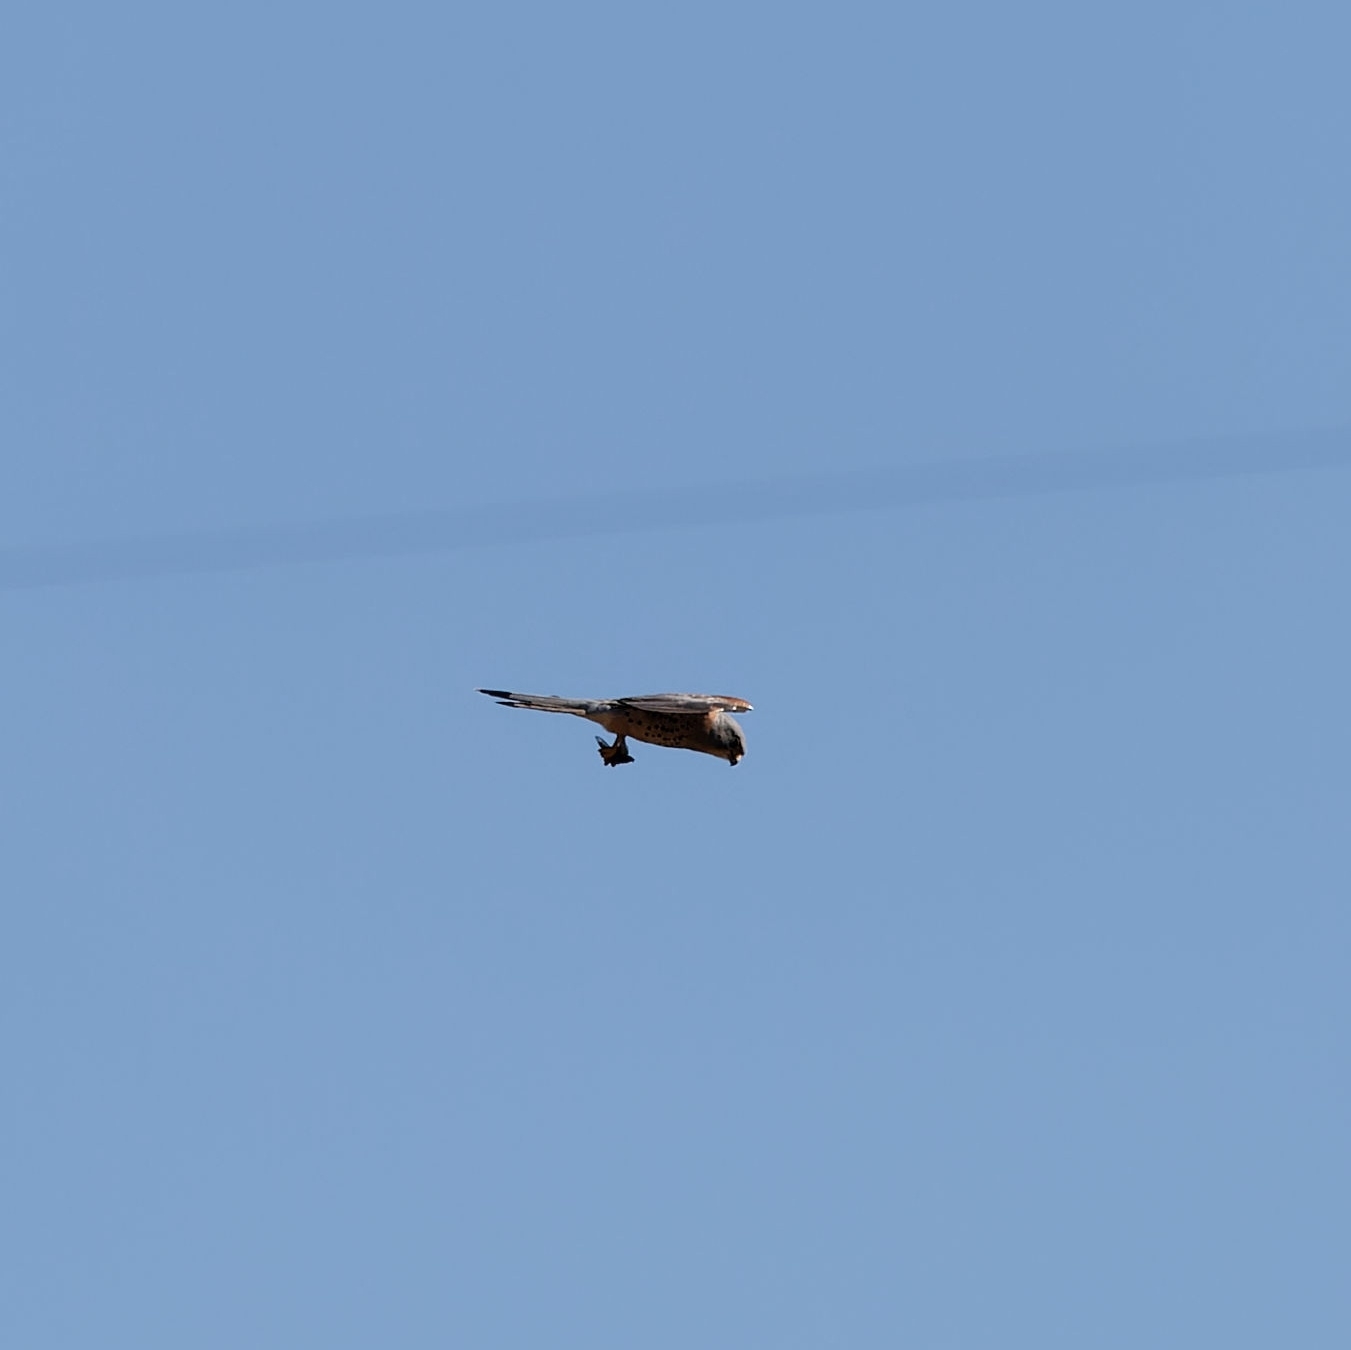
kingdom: Animalia
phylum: Chordata
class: Aves
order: Falconiformes
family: Falconidae
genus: Falco
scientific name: Falco tinnunculus
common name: Common kestrel
